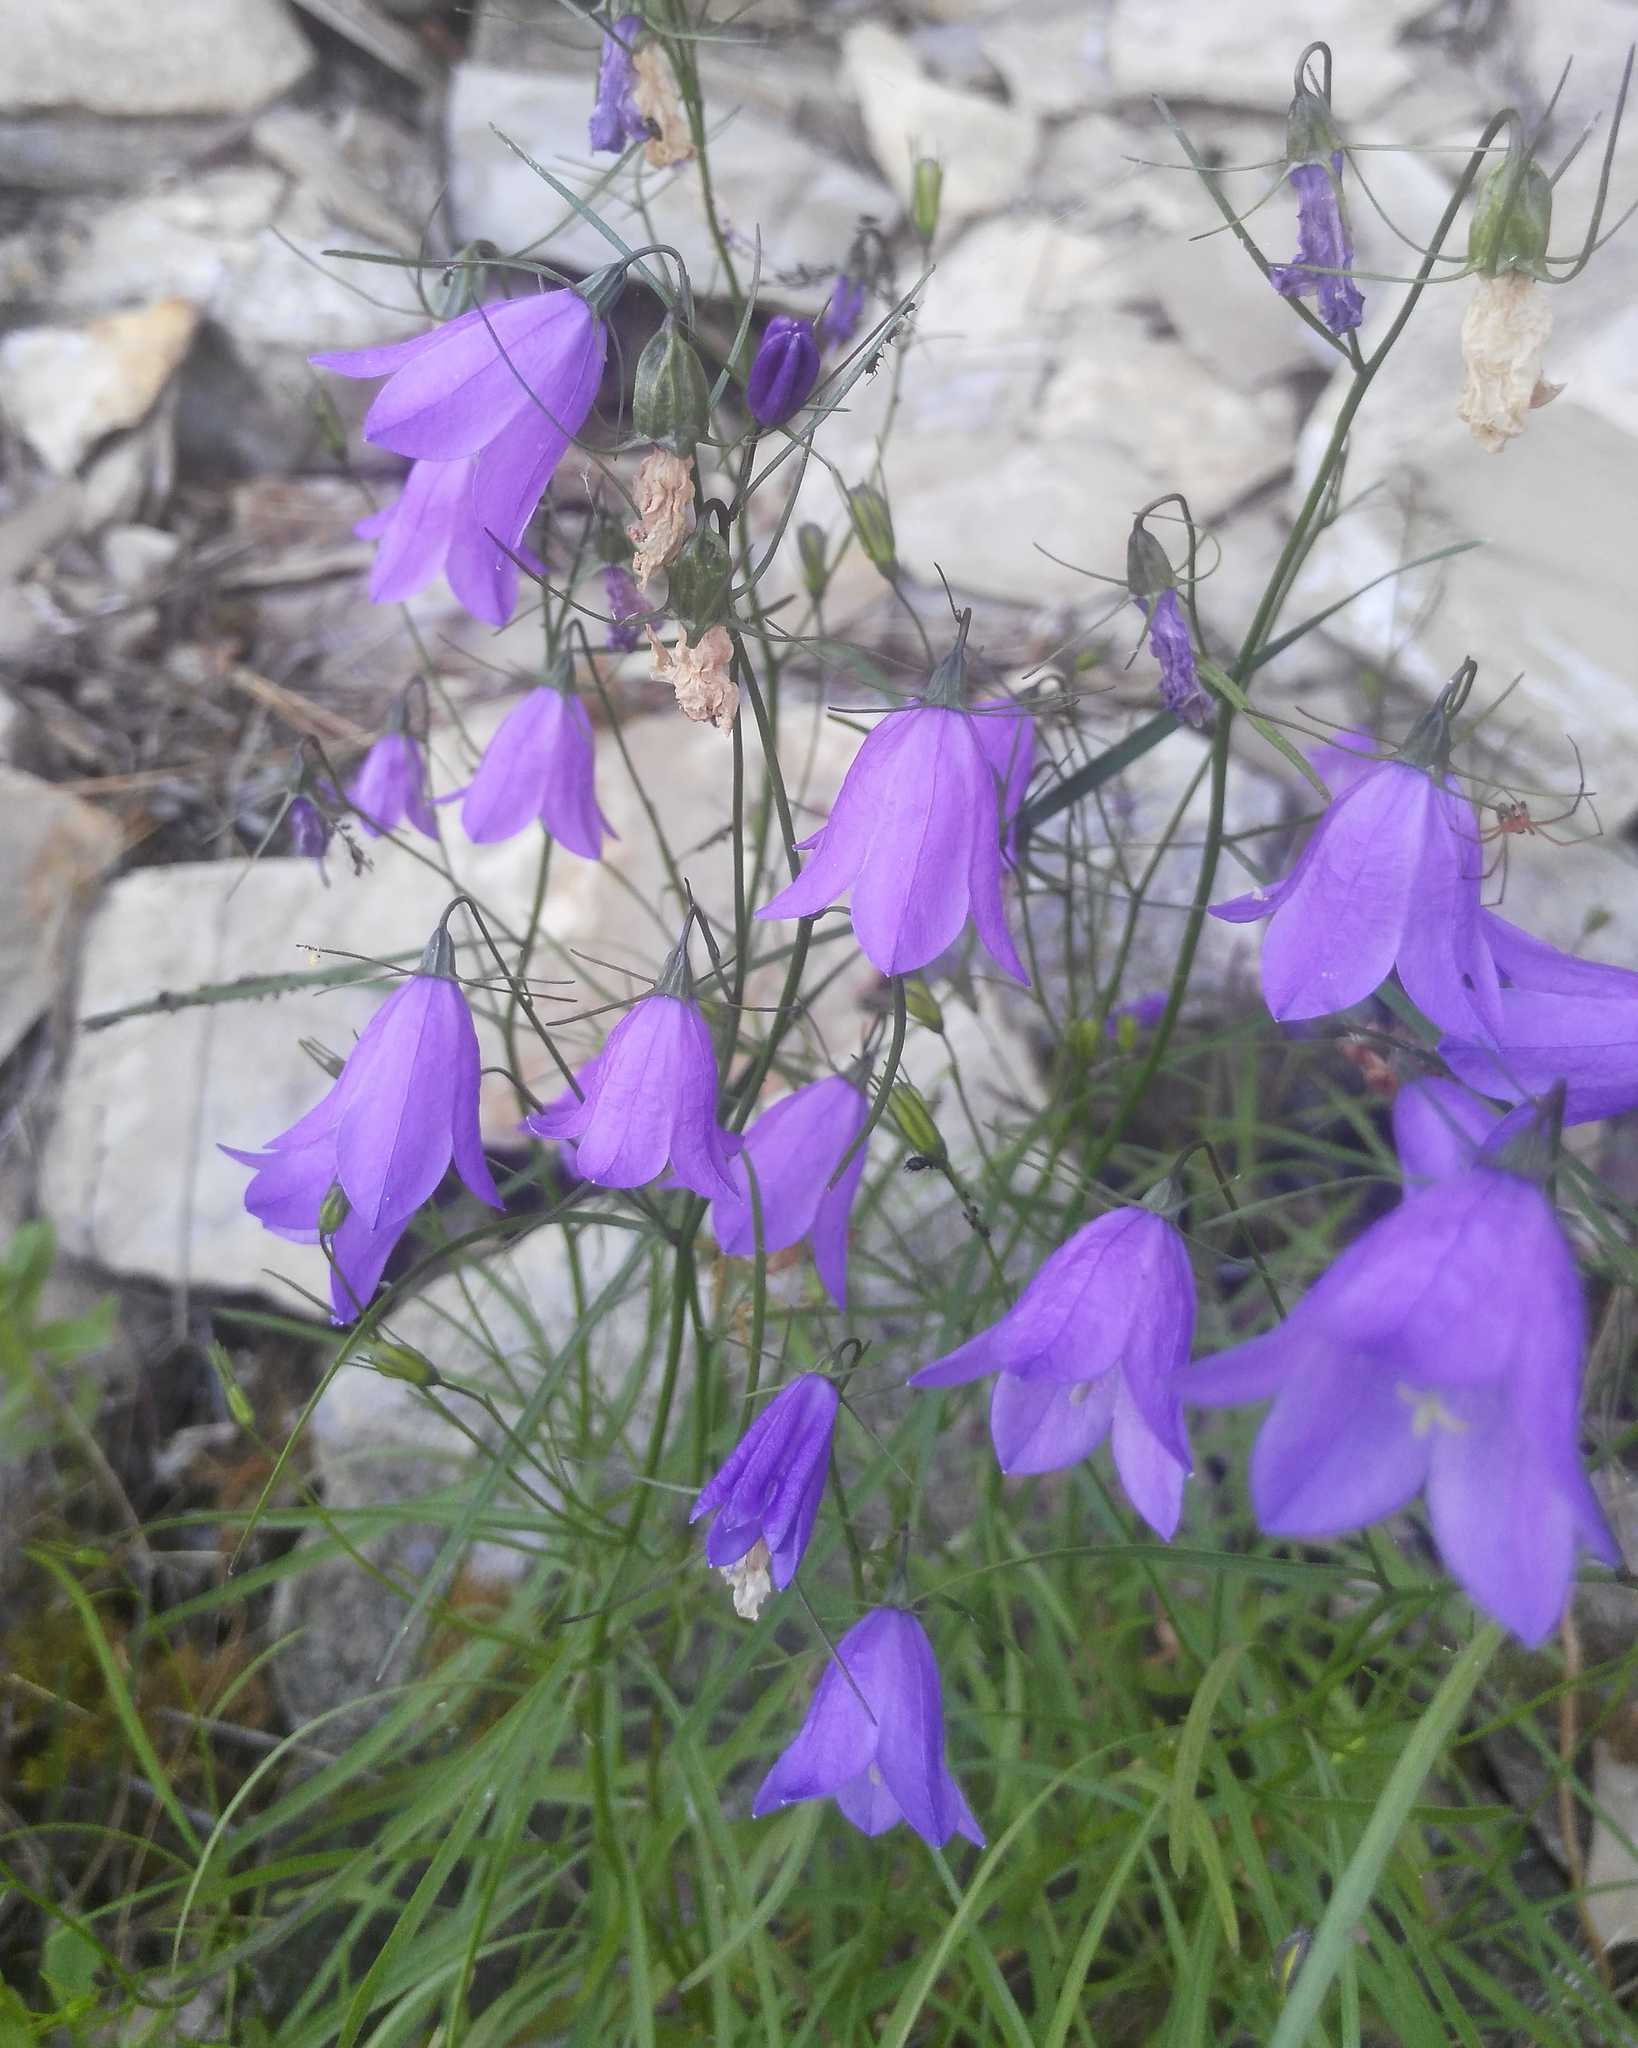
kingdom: Plantae
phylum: Tracheophyta
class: Magnoliopsida
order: Asterales
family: Campanulaceae
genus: Campanula
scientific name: Campanula rotundifolia
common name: Harebell
